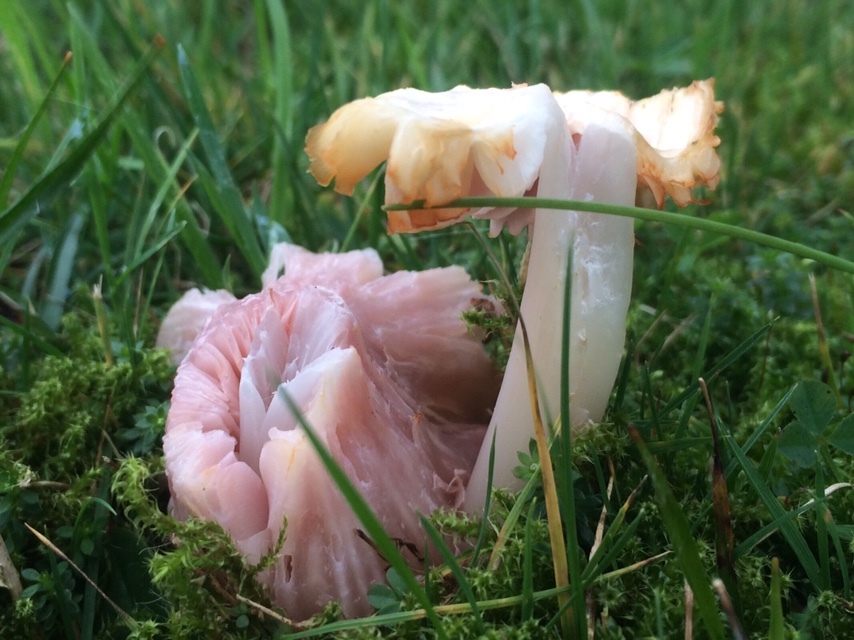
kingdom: Fungi
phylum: Basidiomycota
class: Agaricomycetes
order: Agaricales
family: Hygrophoraceae
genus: Porpolomopsis
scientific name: Porpolomopsis calyptriformis
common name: Pink waxcap
